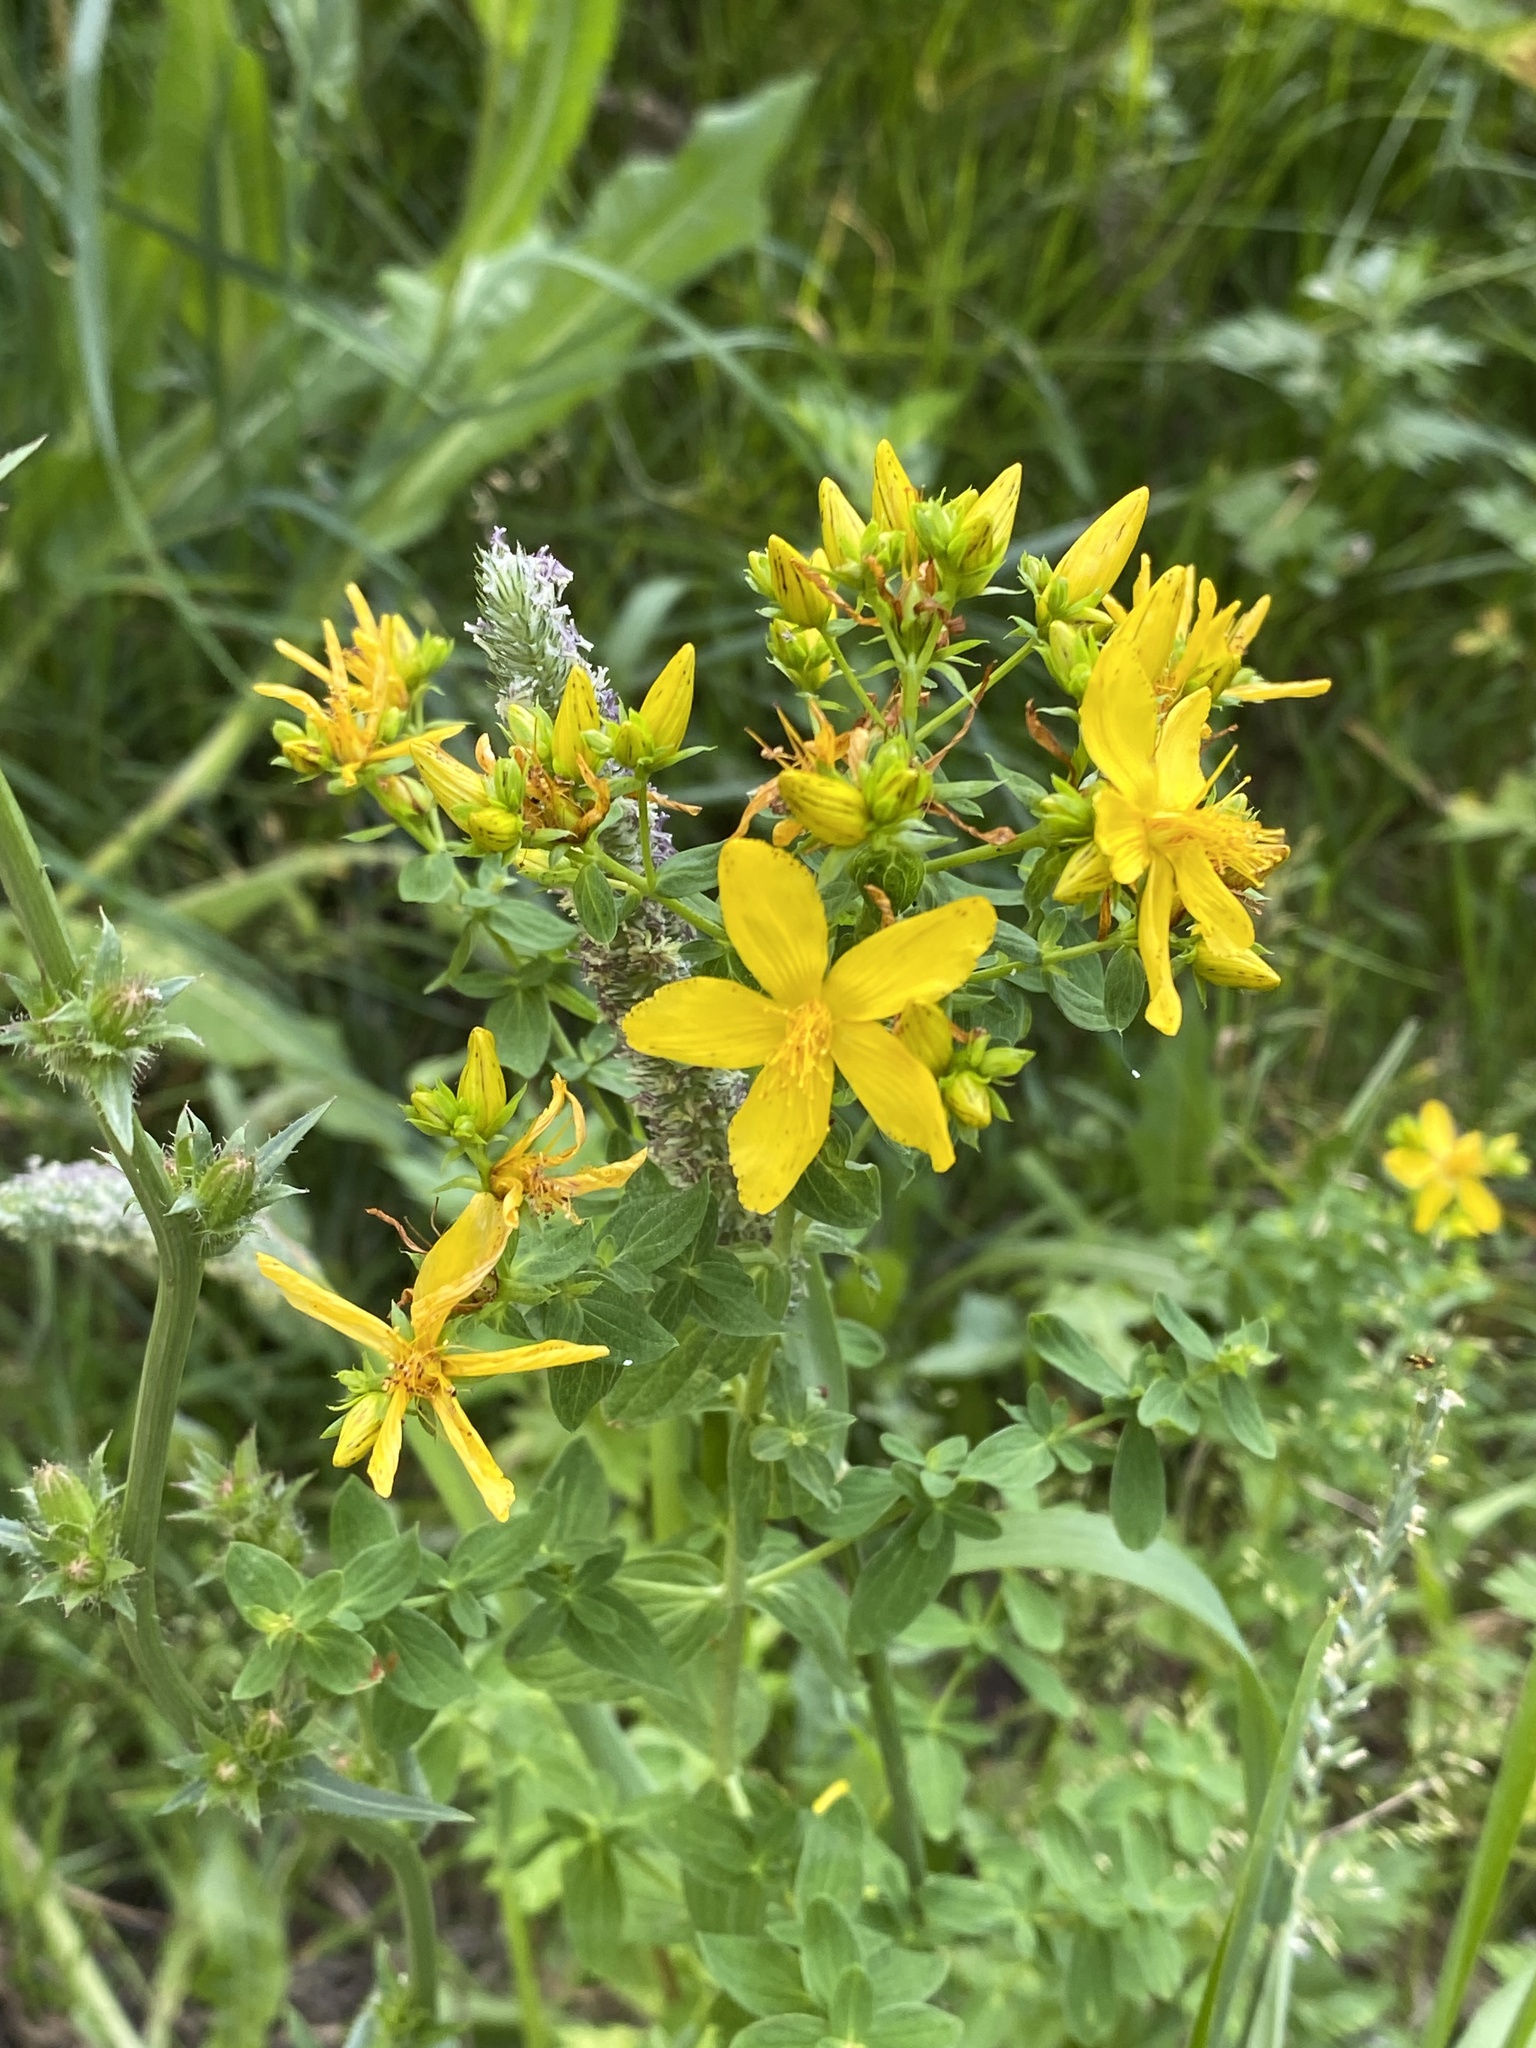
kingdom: Plantae
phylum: Tracheophyta
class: Magnoliopsida
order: Malpighiales
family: Hypericaceae
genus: Hypericum
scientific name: Hypericum perforatum
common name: Common st. johnswort
